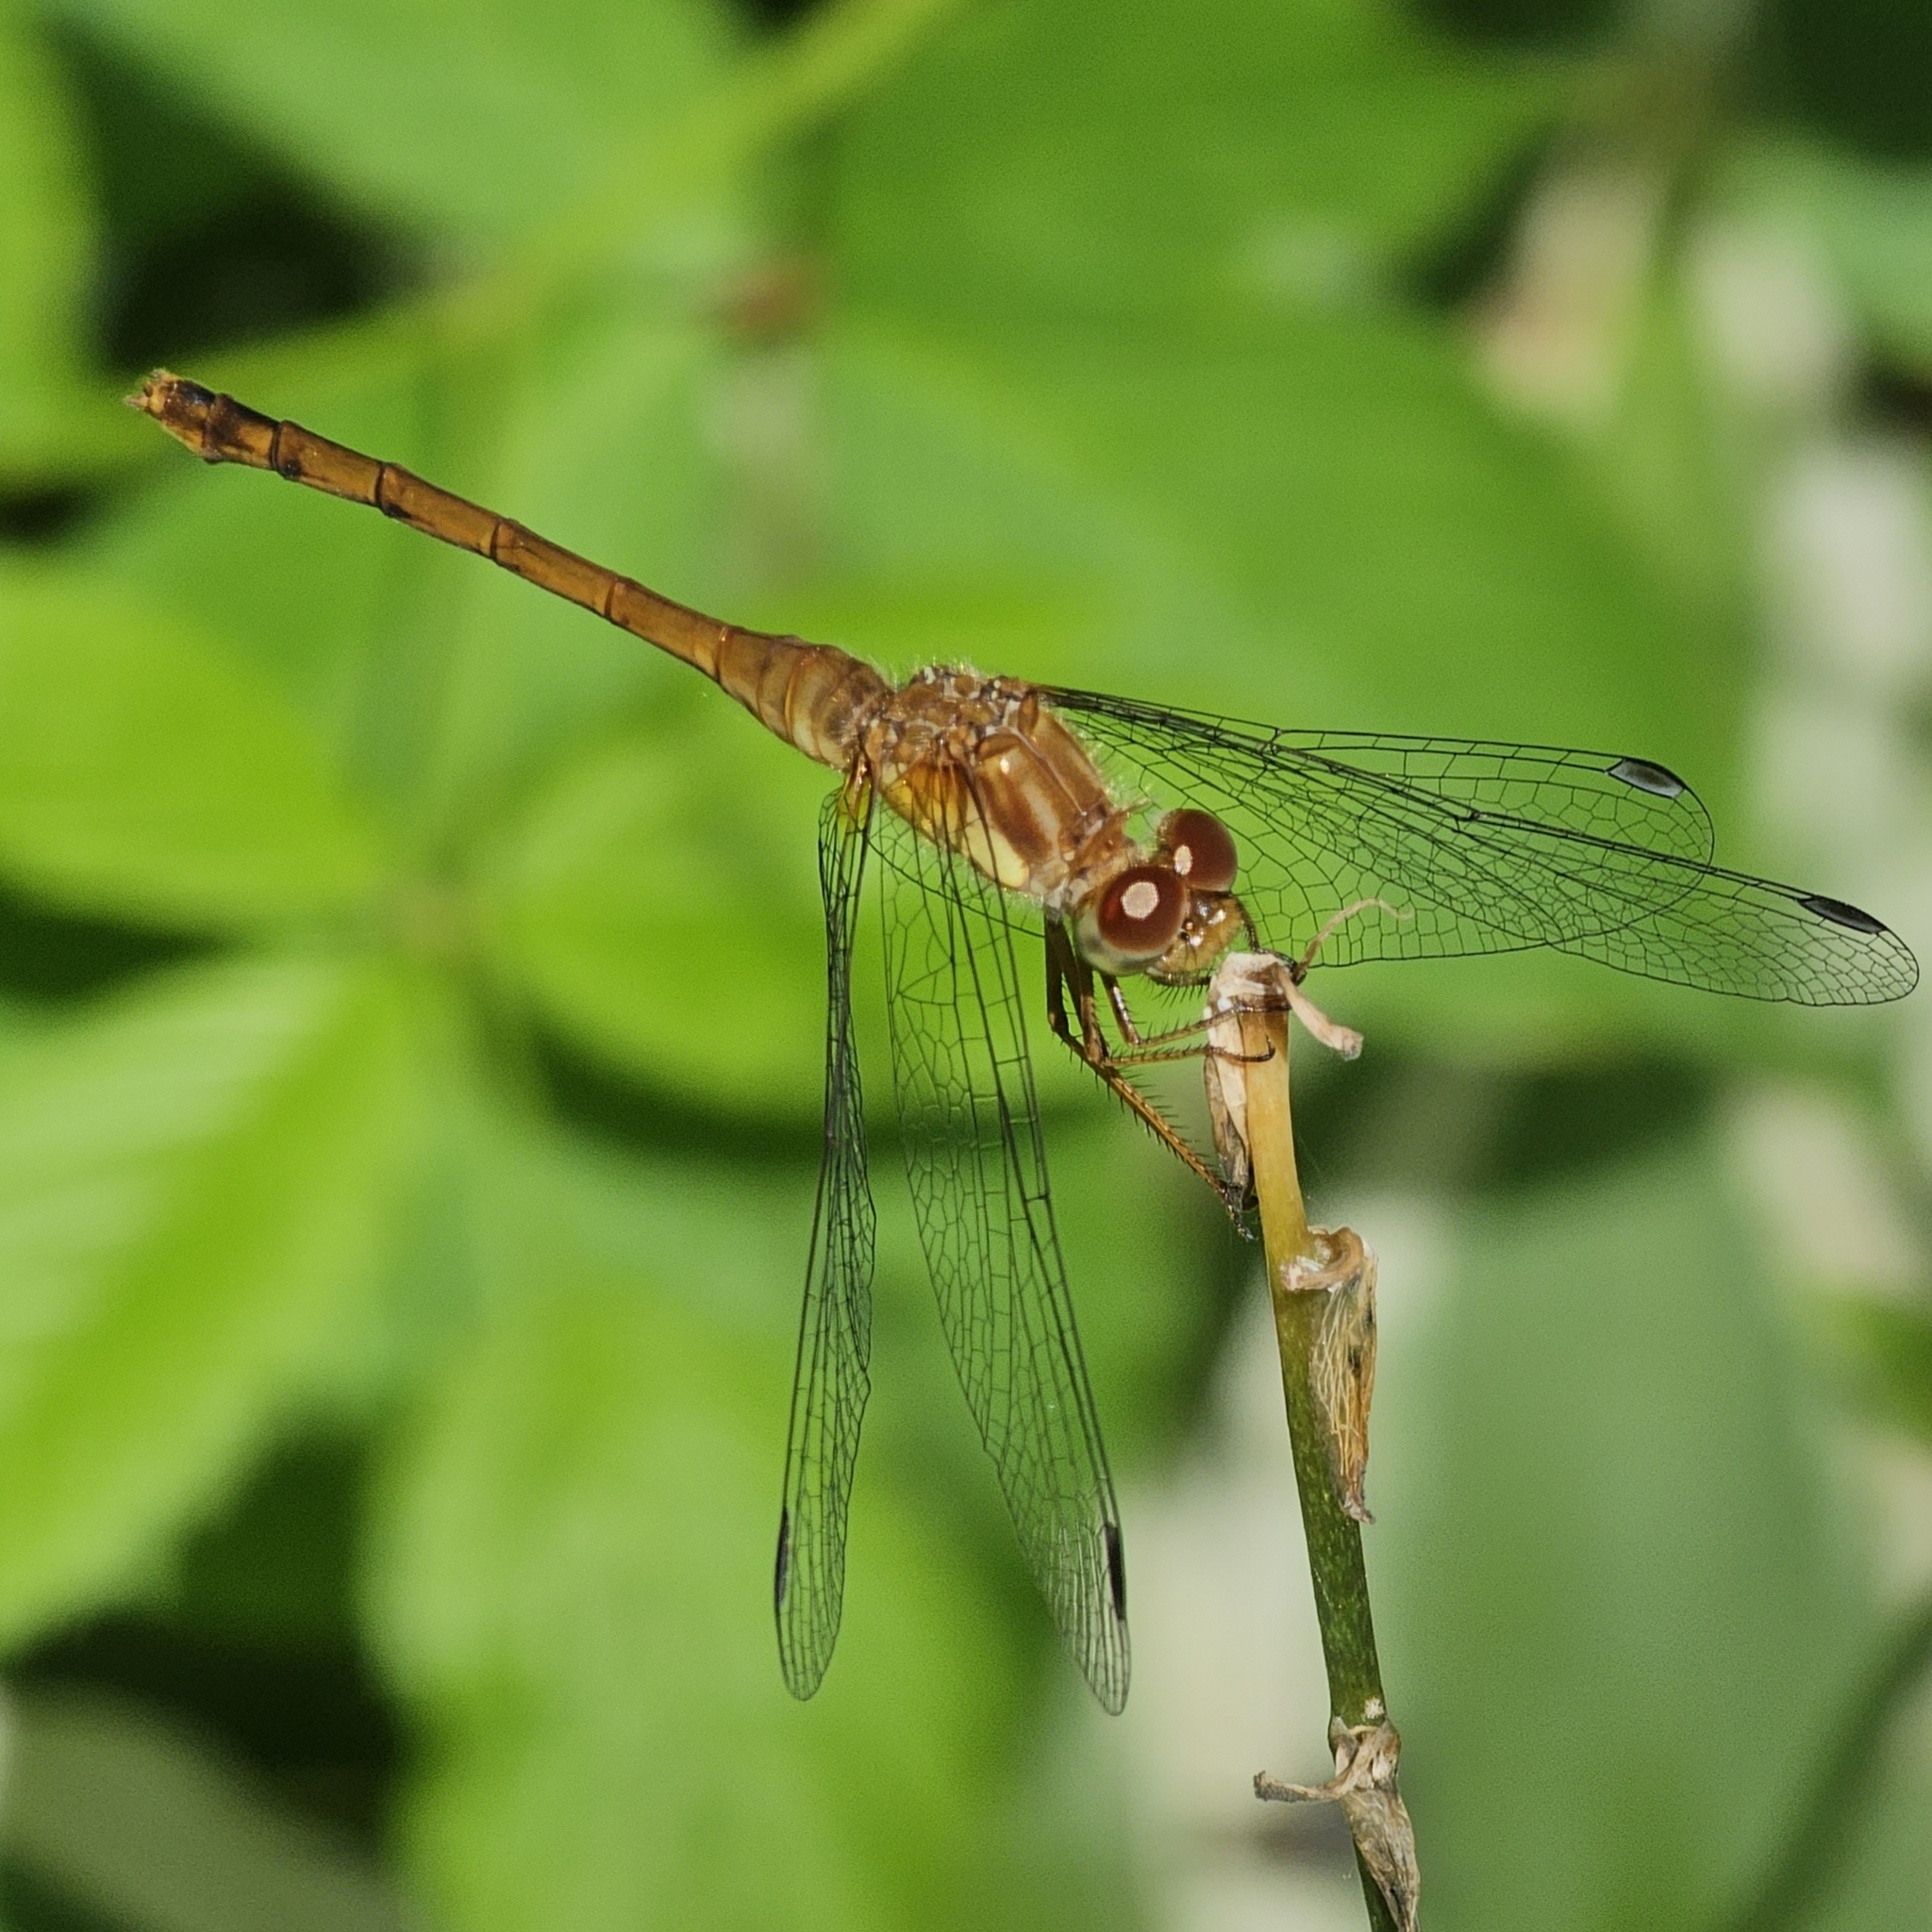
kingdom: Animalia
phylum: Arthropoda
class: Insecta
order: Odonata
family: Libellulidae
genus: Sympetrum
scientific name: Sympetrum vicinum
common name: Autumn meadowhawk
